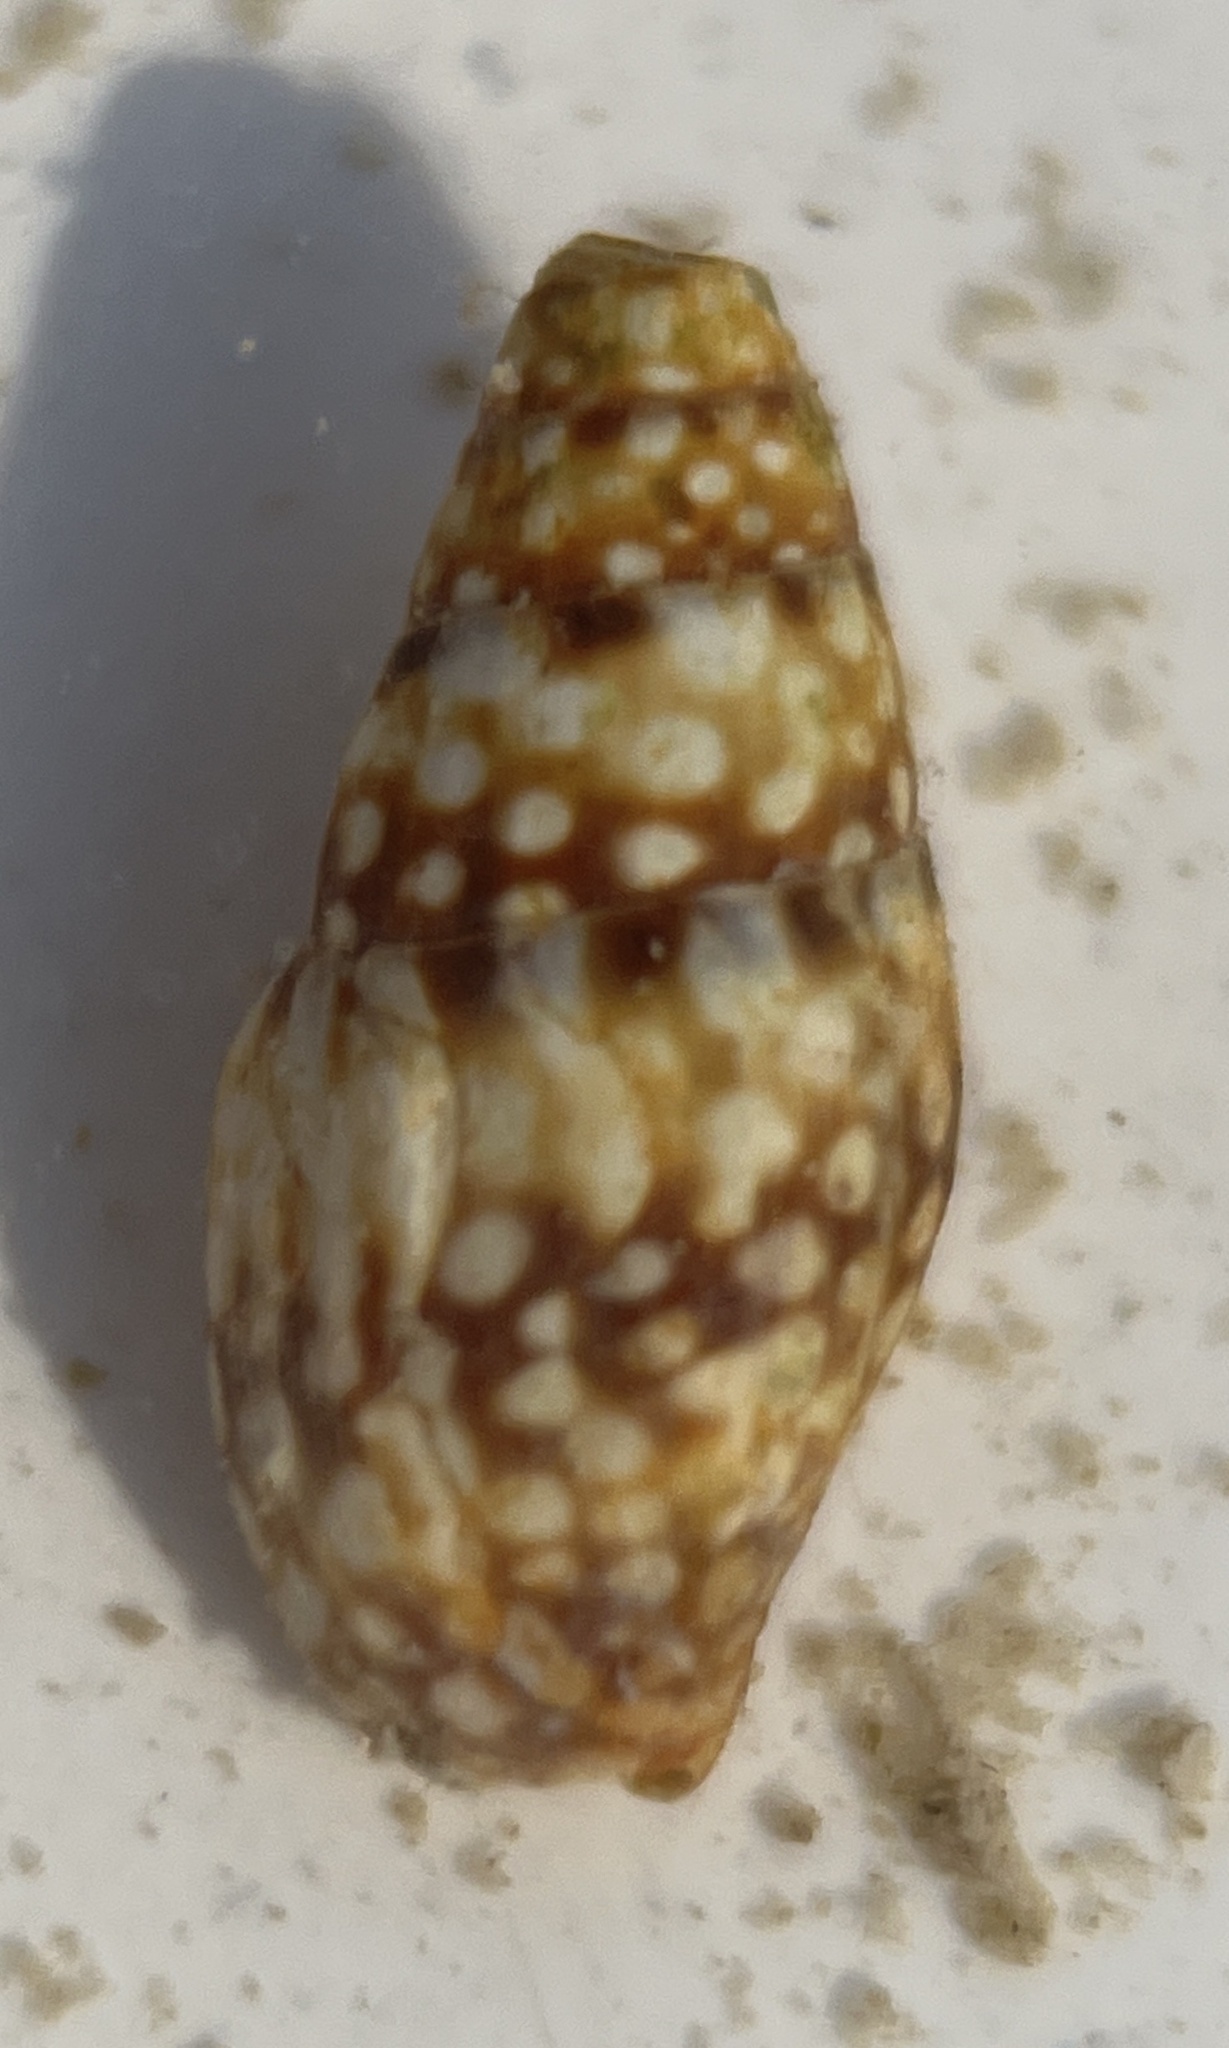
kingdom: Animalia
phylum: Mollusca
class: Gastropoda
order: Neogastropoda
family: Columbellidae
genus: Mitrella
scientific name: Mitrella ocellata
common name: White-spot dovesnail
